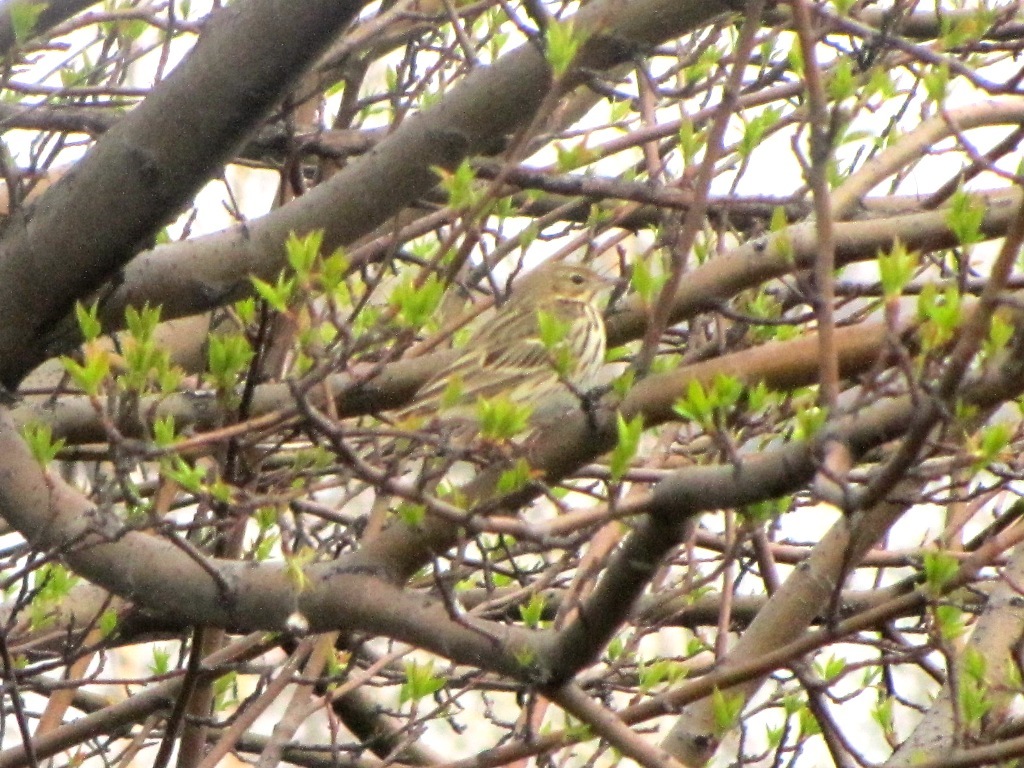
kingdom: Animalia
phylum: Chordata
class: Aves
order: Passeriformes
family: Motacillidae
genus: Anthus
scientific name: Anthus trivialis
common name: Tree pipit
